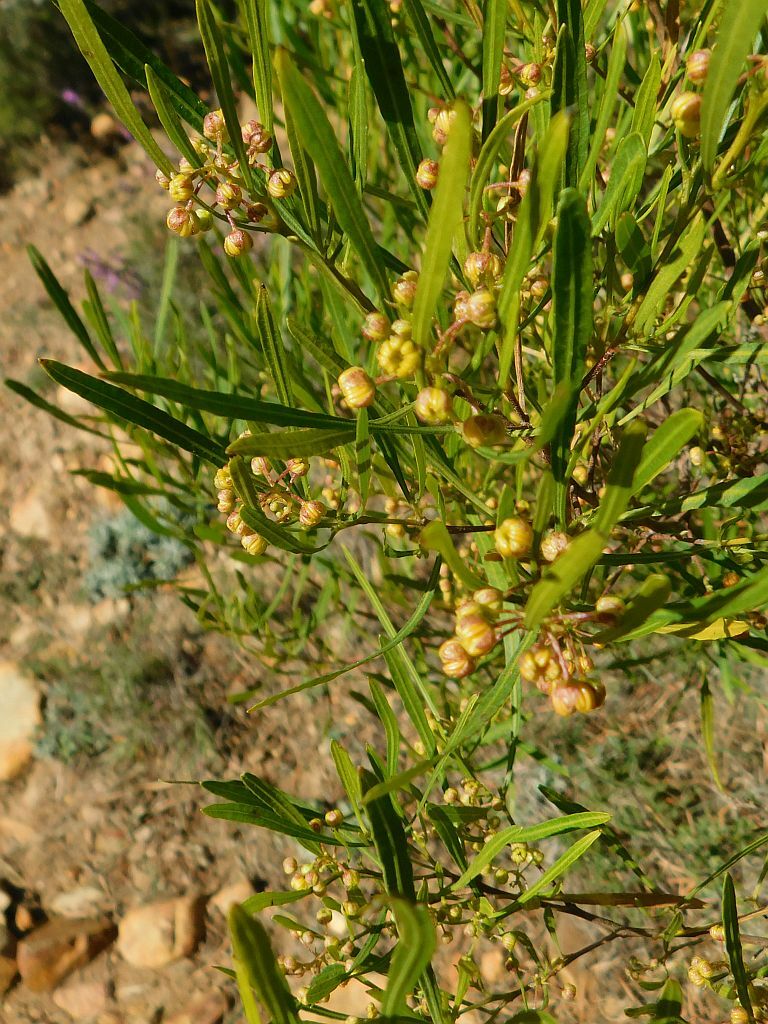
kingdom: Plantae
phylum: Tracheophyta
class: Magnoliopsida
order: Sapindales
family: Sapindaceae
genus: Dodonaea
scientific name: Dodonaea viscosa
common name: Hopbush
